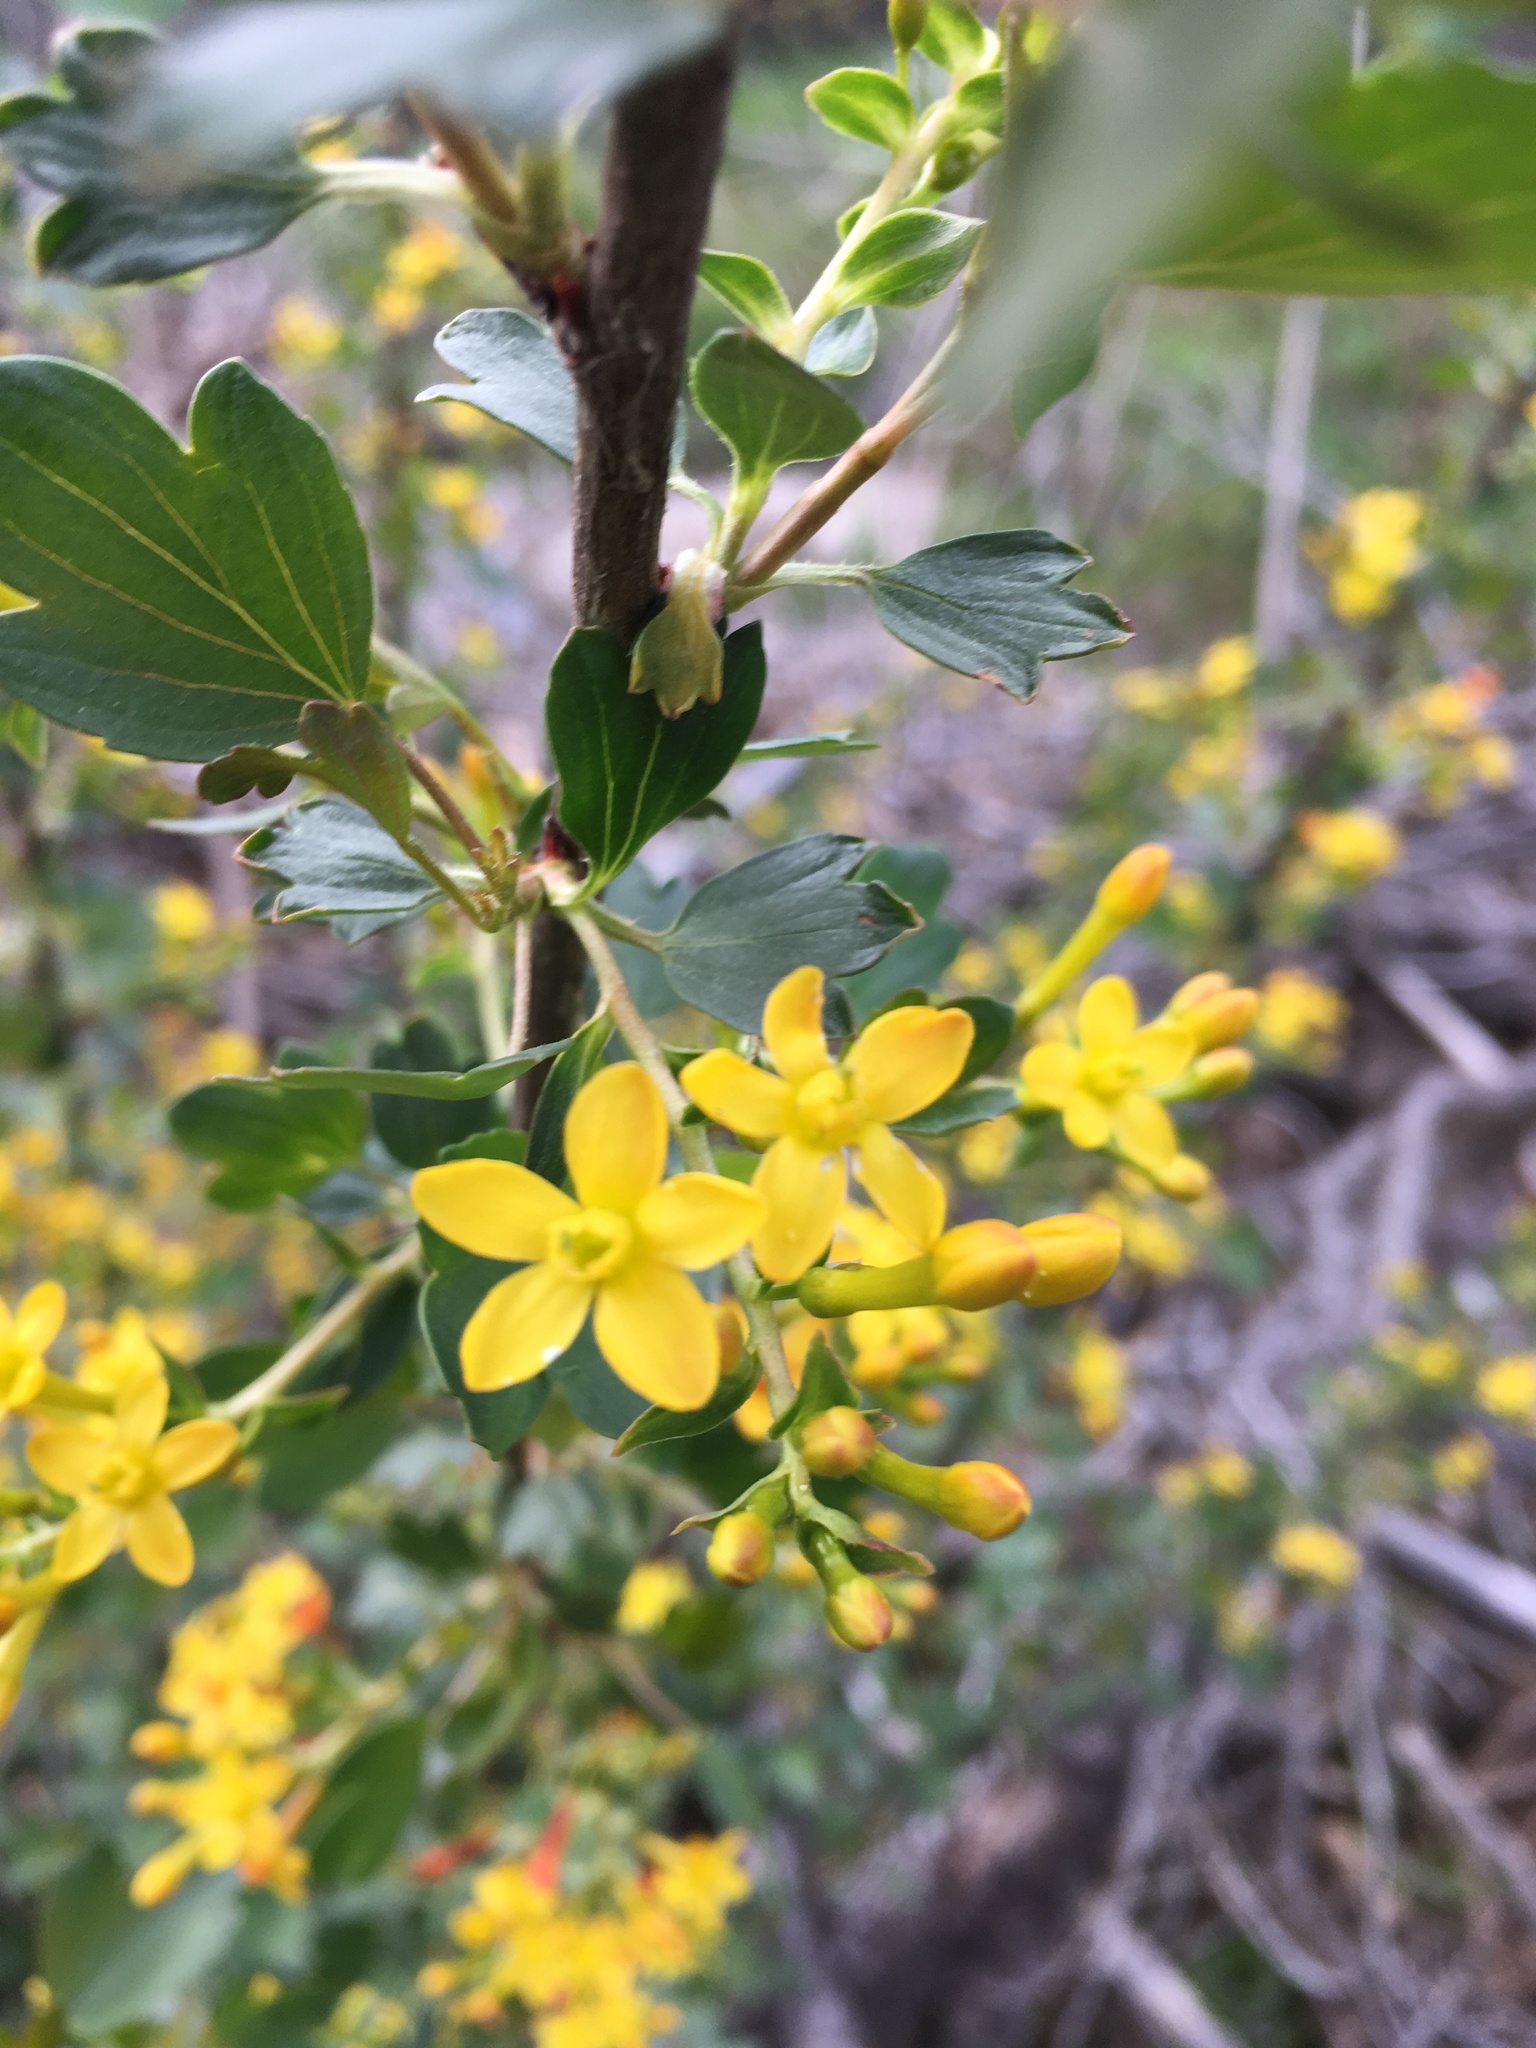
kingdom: Plantae
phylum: Tracheophyta
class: Magnoliopsida
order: Saxifragales
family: Grossulariaceae
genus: Ribes
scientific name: Ribes aureum
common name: Golden currant
